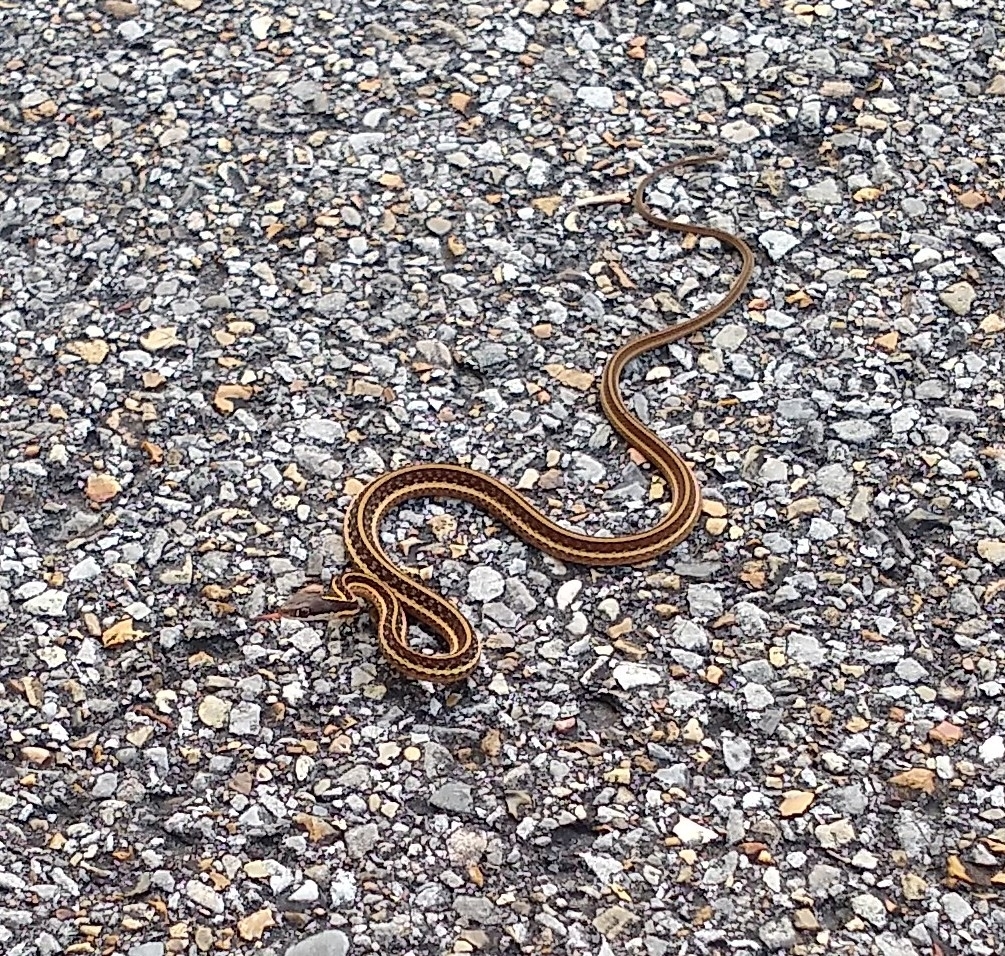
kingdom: Animalia
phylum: Chordata
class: Squamata
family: Colubridae
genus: Thamnophis
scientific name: Thamnophis saurita
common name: Eastern ribbonsnake
